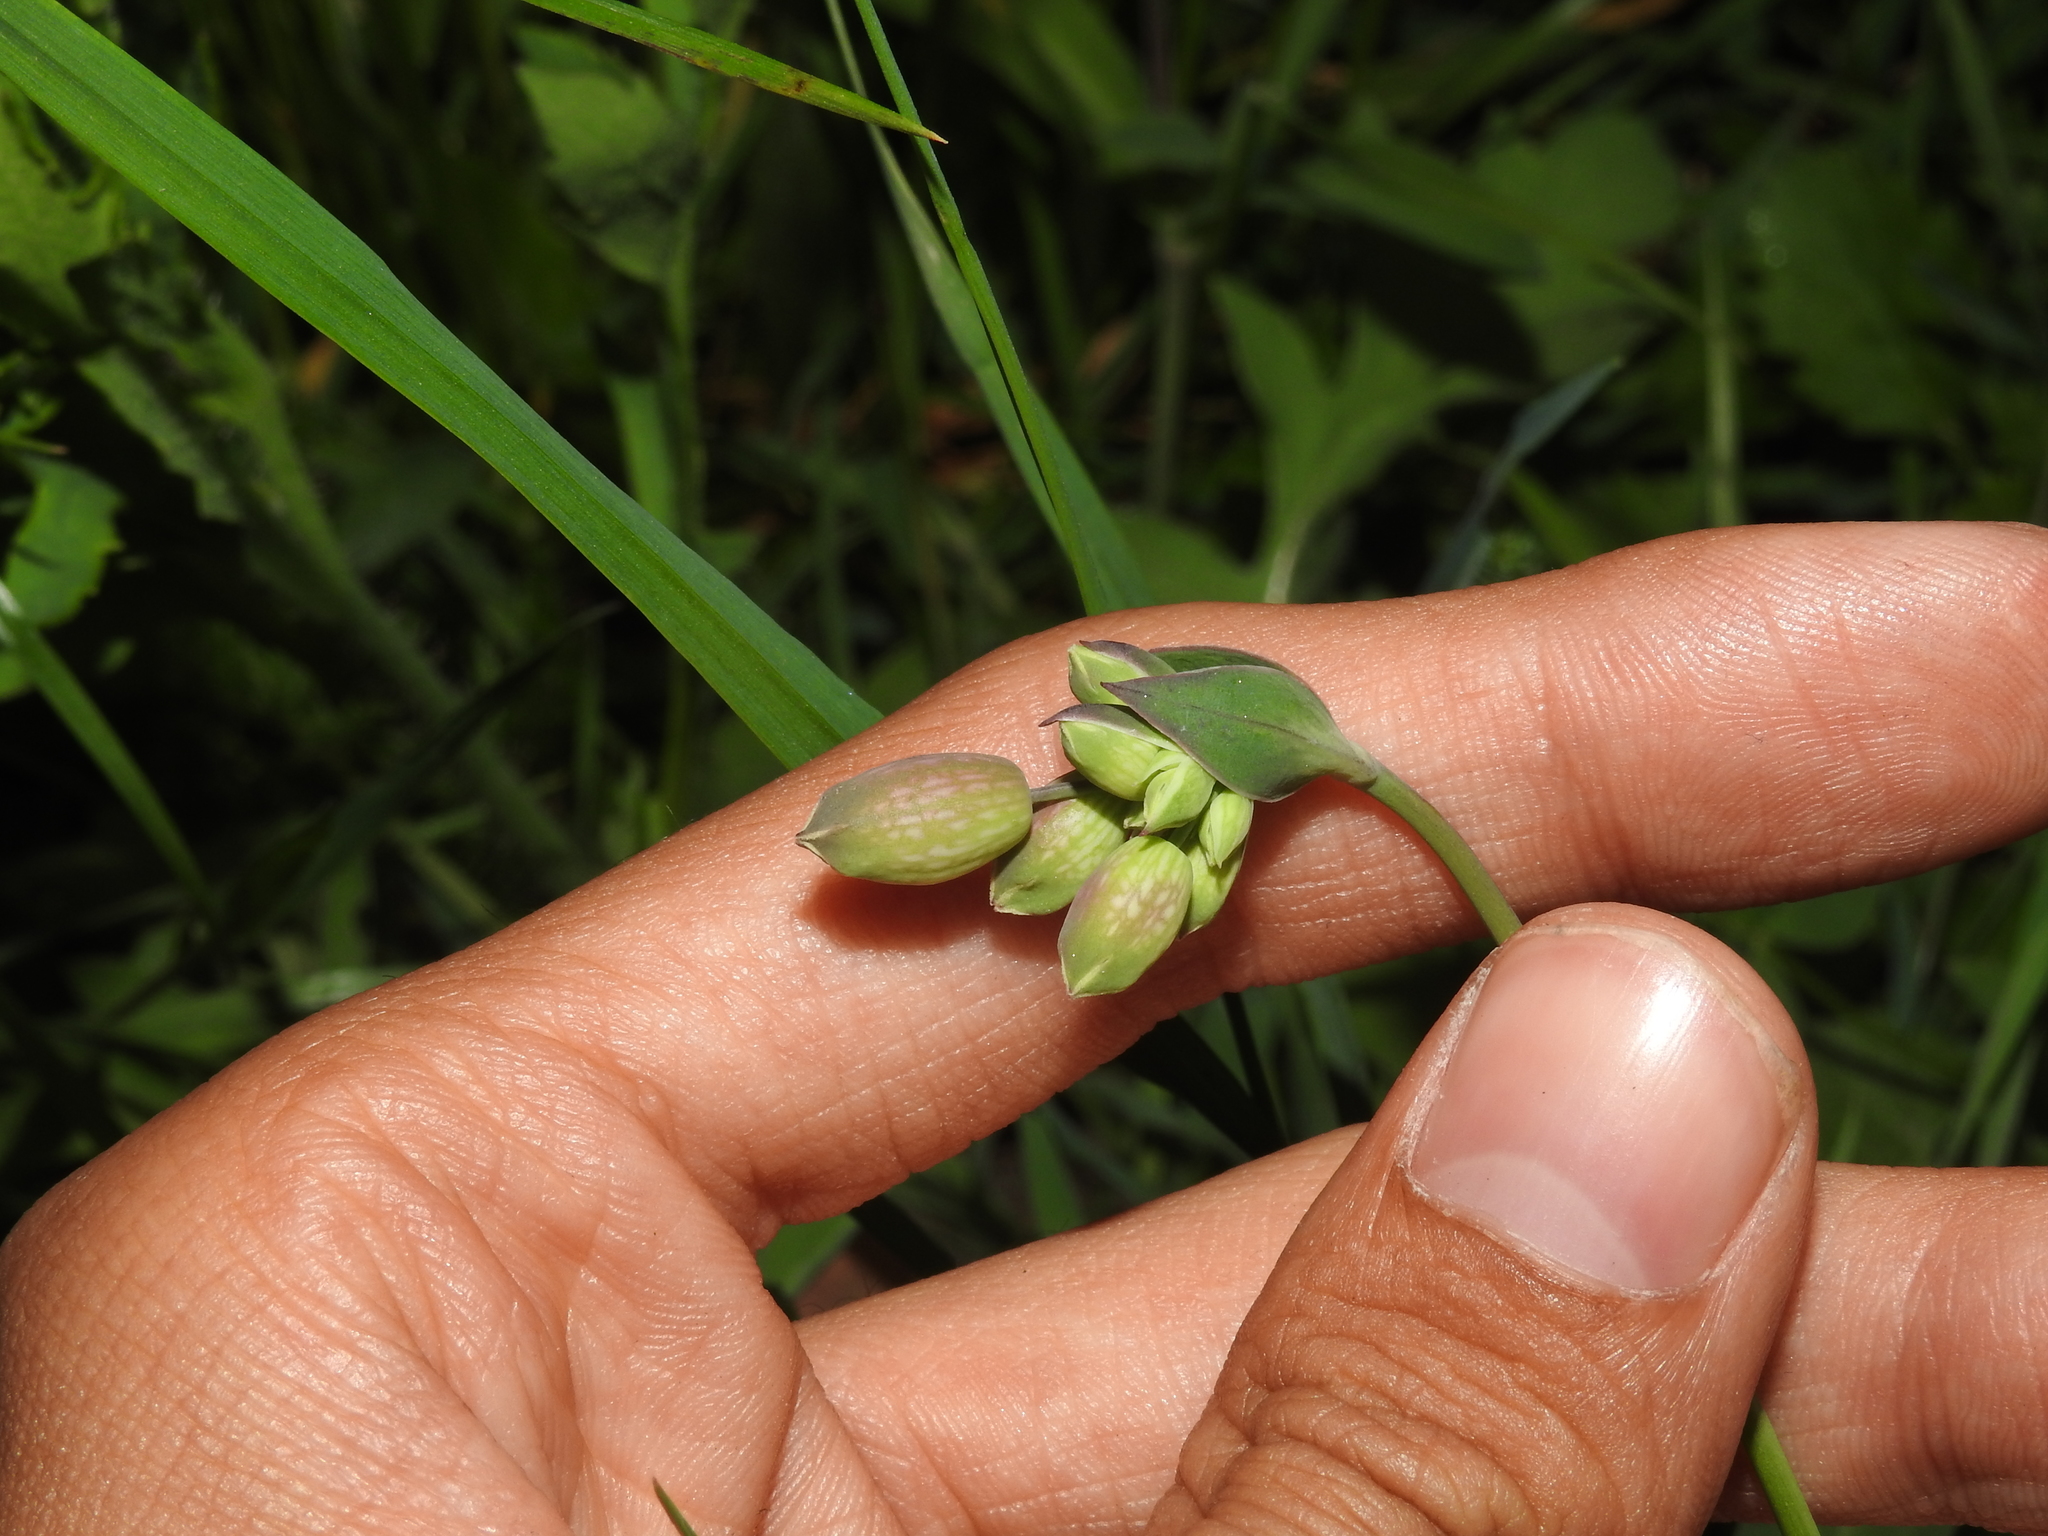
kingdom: Plantae
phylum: Tracheophyta
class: Magnoliopsida
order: Caryophyllales
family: Caryophyllaceae
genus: Silene
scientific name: Silene vulgaris
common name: Bladder campion
